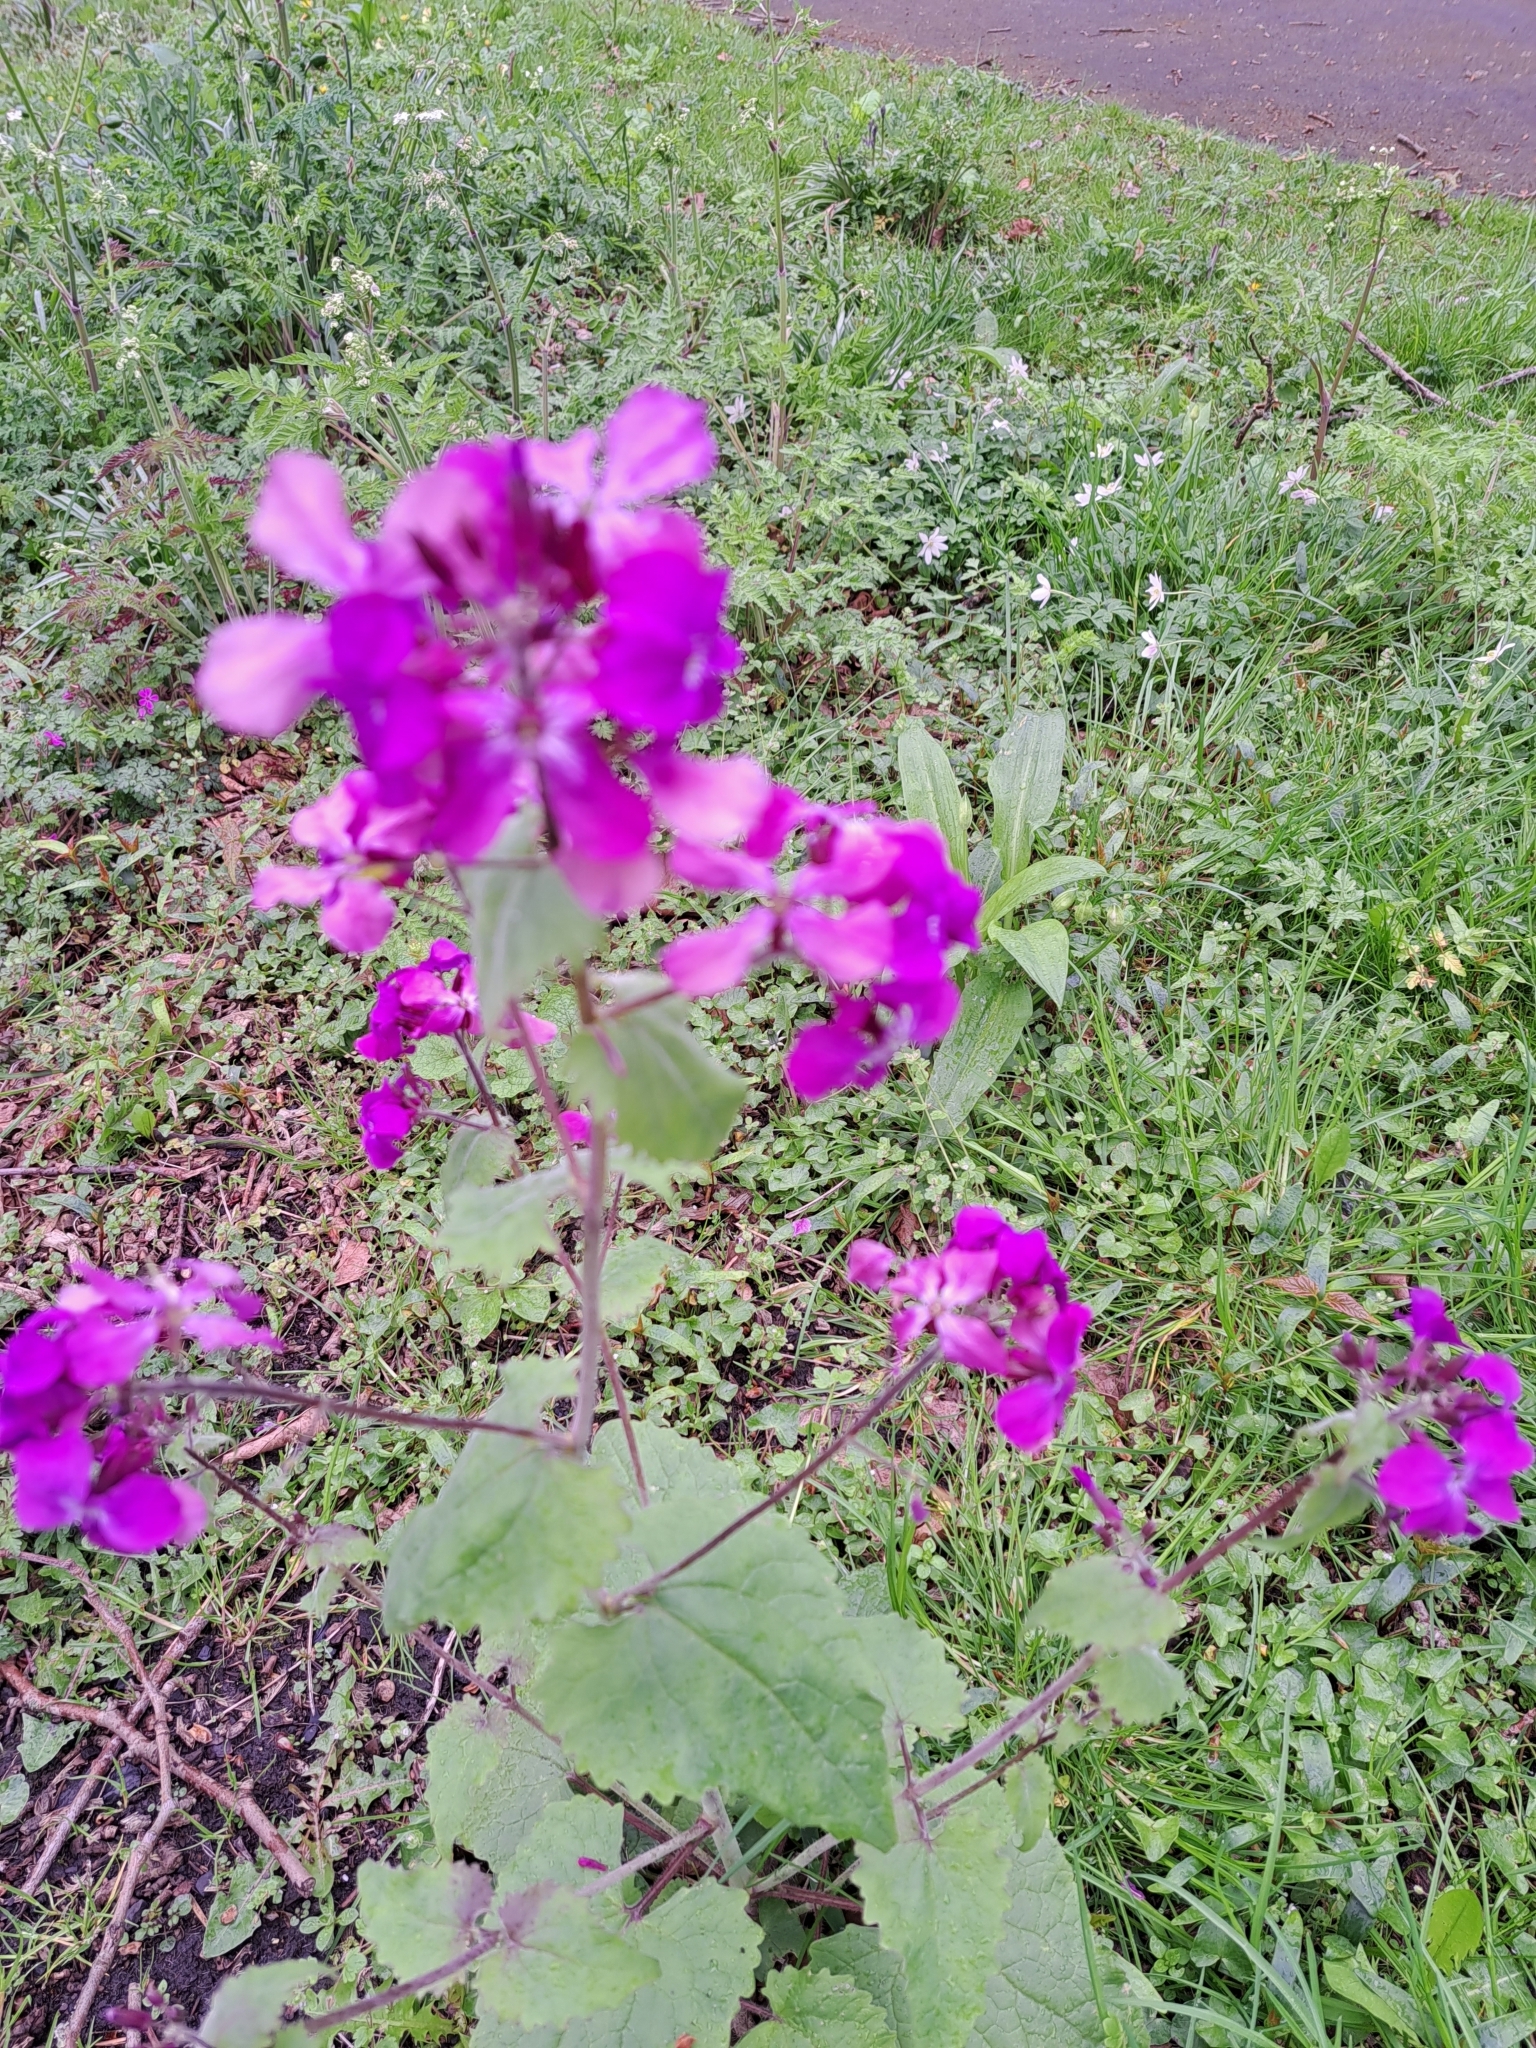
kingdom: Plantae
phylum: Tracheophyta
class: Magnoliopsida
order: Brassicales
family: Brassicaceae
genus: Lunaria
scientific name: Lunaria annua
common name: Honesty
